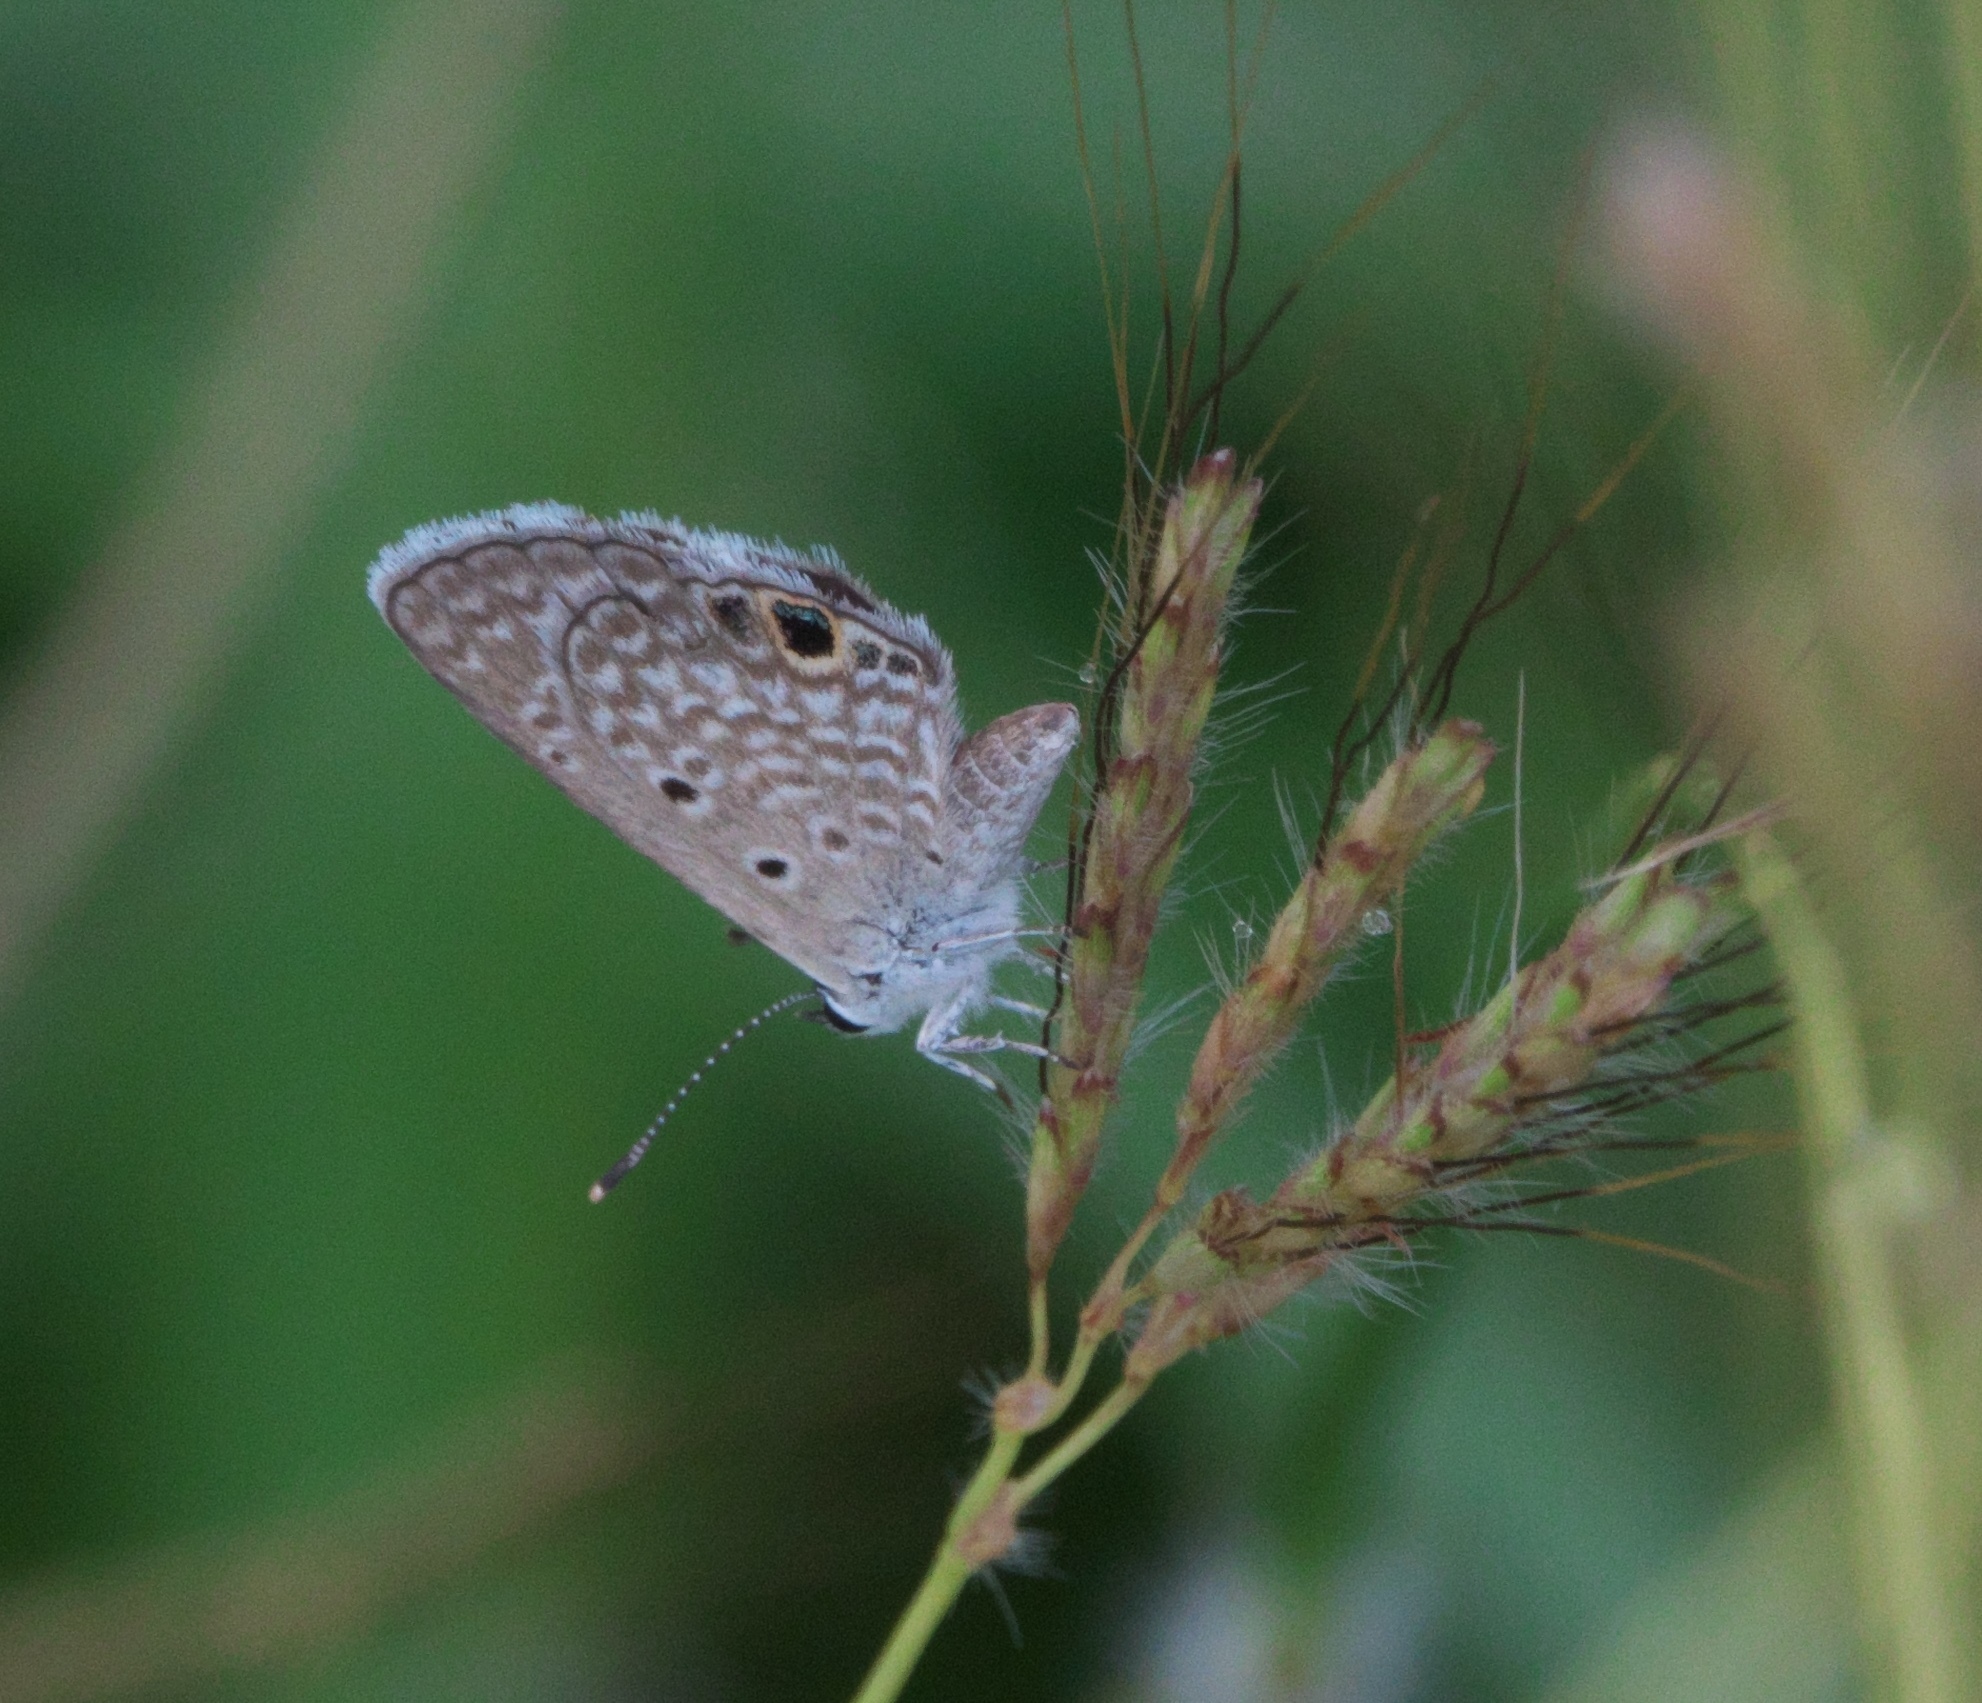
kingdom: Animalia
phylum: Arthropoda
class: Insecta
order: Lepidoptera
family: Lycaenidae
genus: Hemiargus
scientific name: Hemiargus ceraunus
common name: Ceraunus blue
